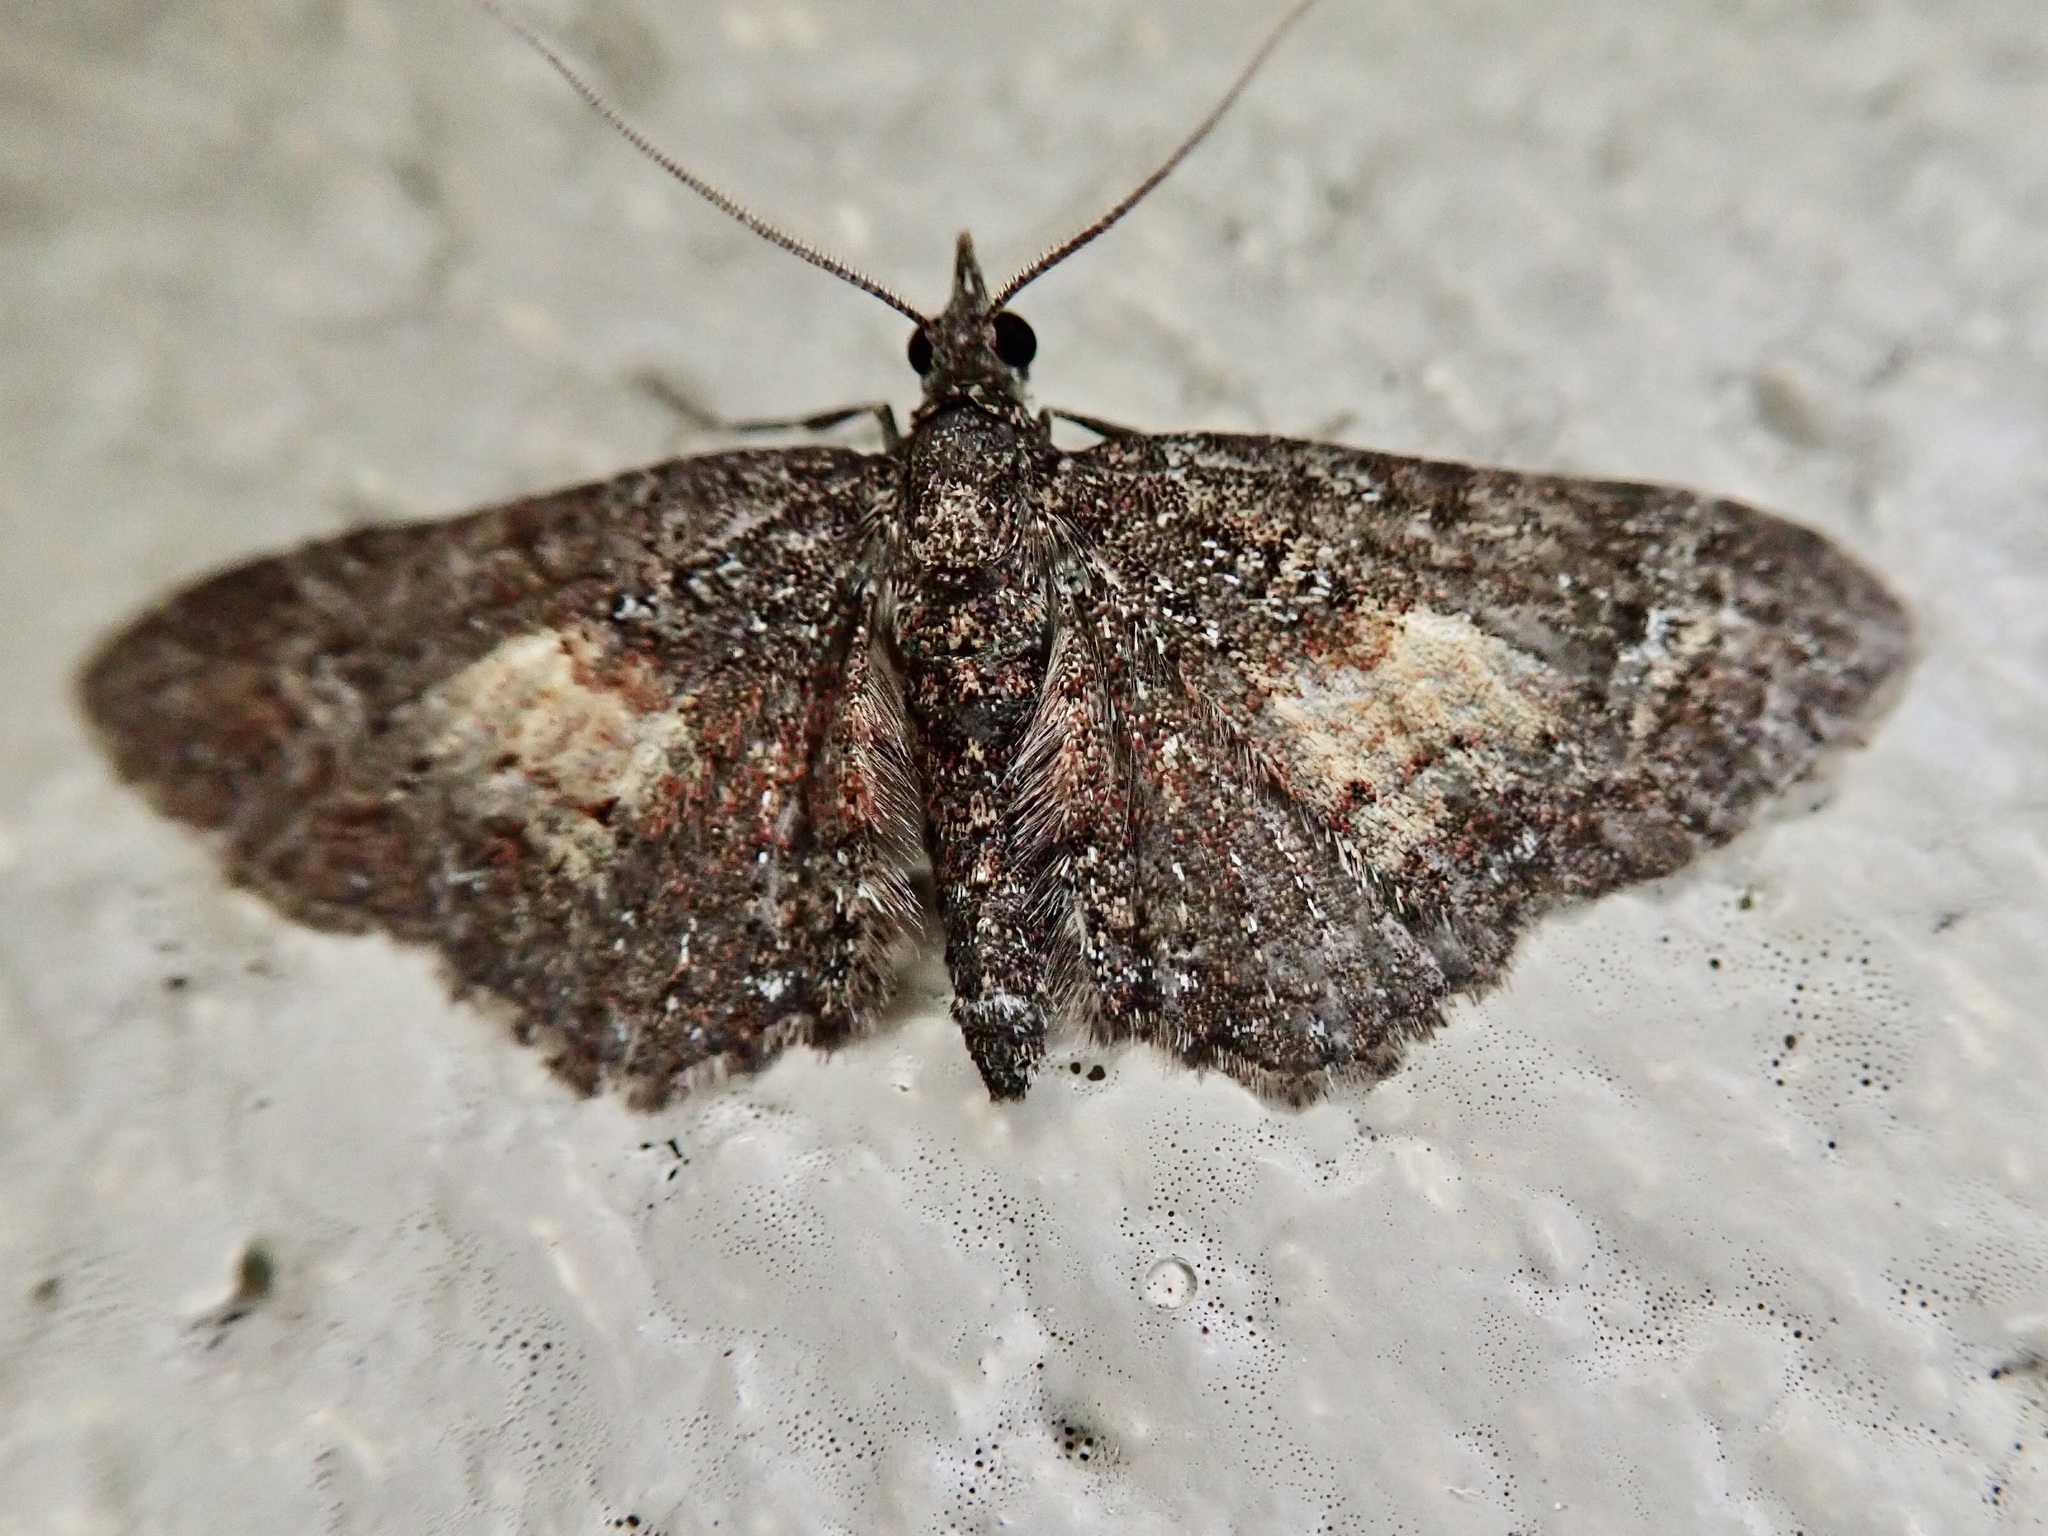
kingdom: Animalia
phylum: Arthropoda
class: Insecta
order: Lepidoptera
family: Geometridae
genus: Pasiphilodes
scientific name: Pasiphilodes testulata
